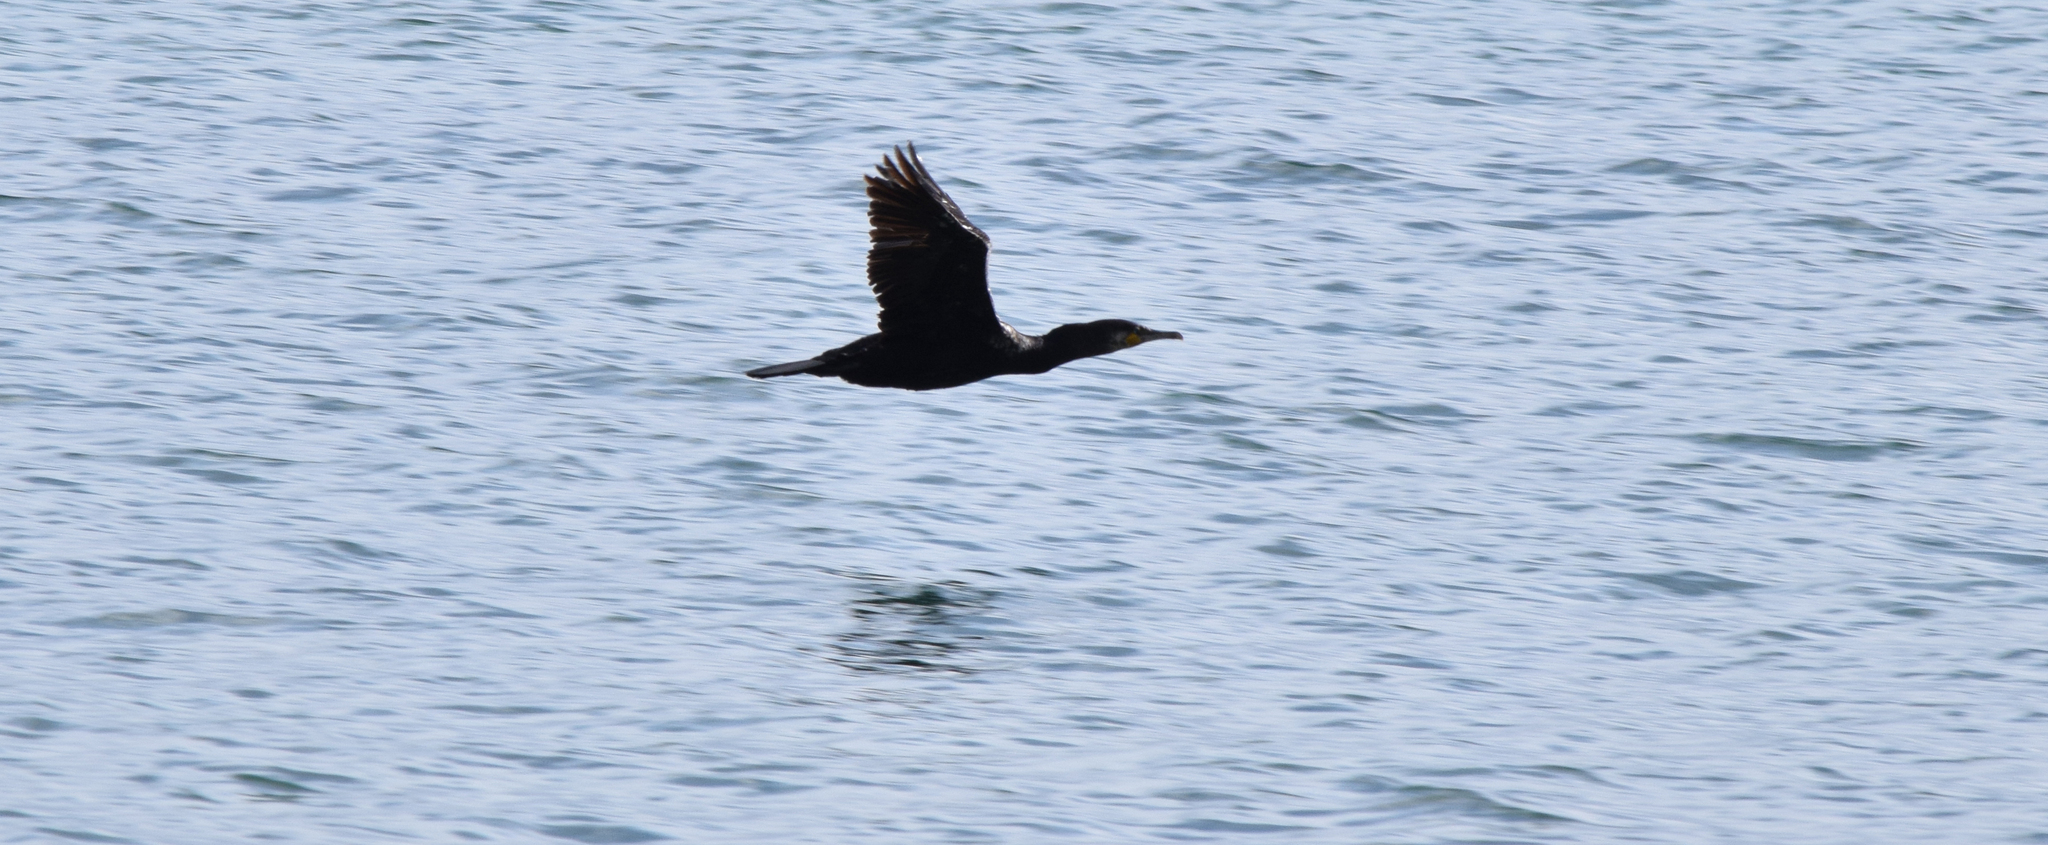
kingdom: Animalia
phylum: Chordata
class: Aves
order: Suliformes
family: Phalacrocoracidae
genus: Phalacrocorax
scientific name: Phalacrocorax carbo
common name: Great cormorant
